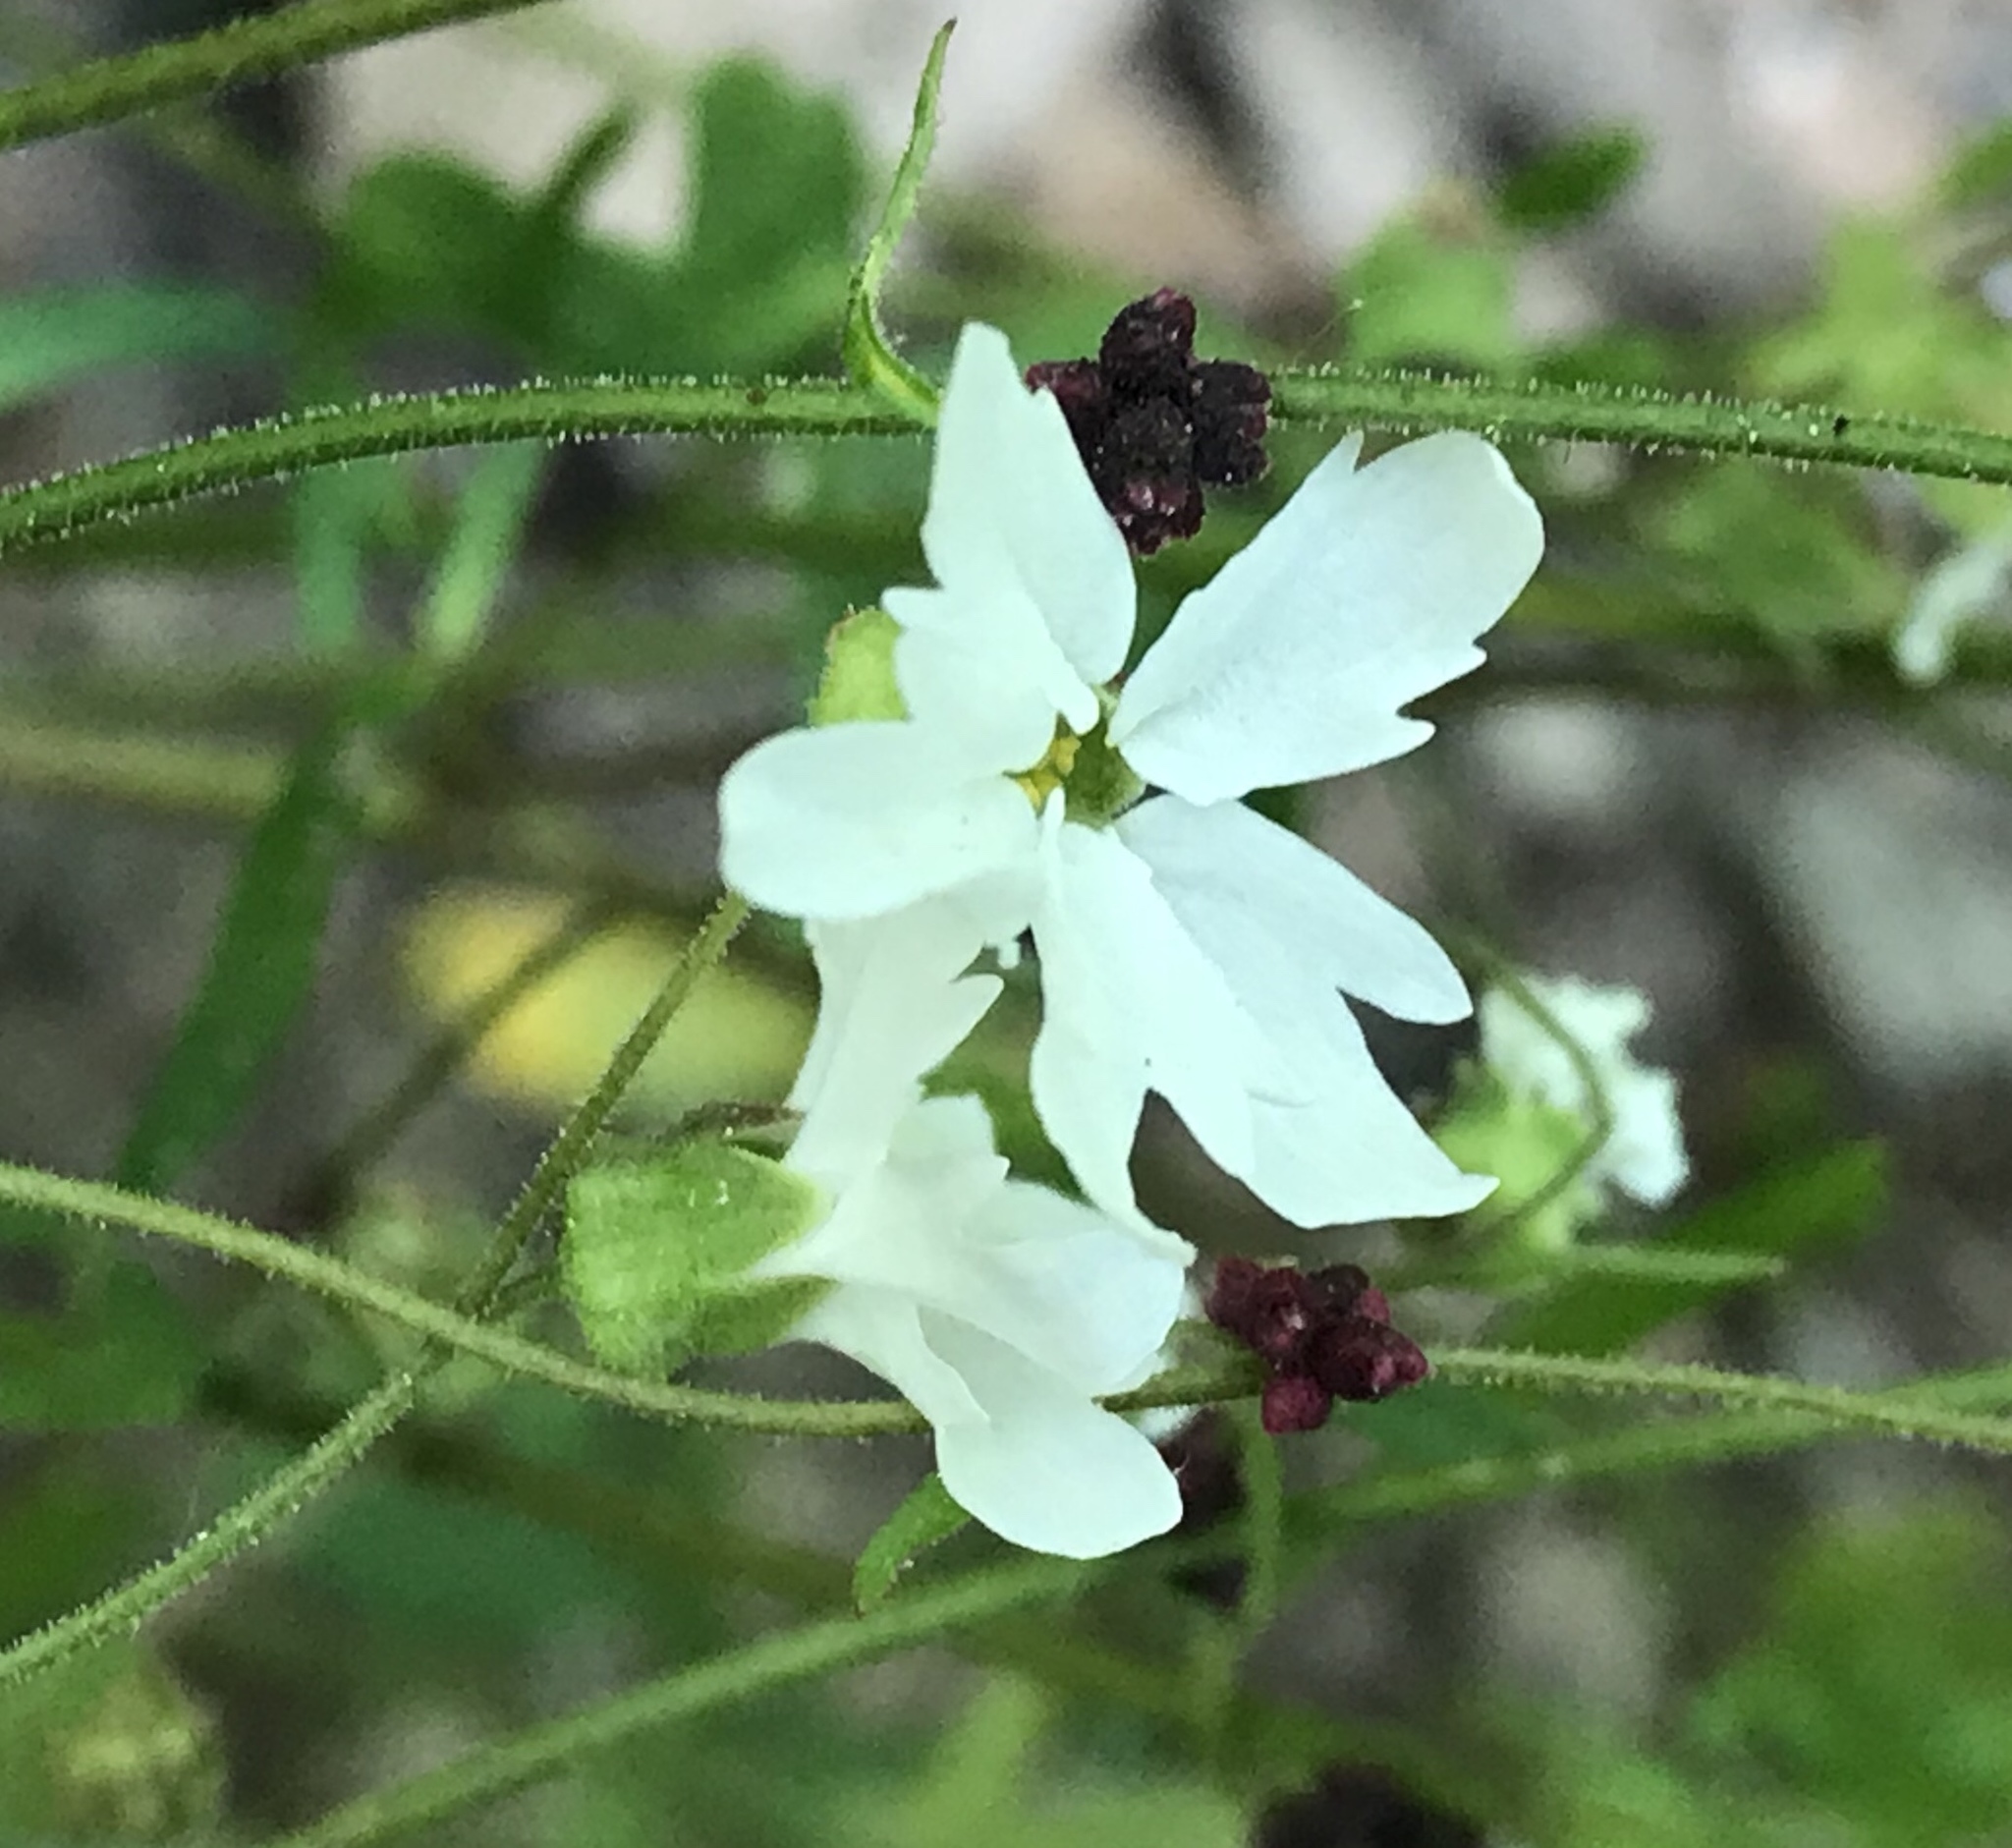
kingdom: Plantae
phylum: Tracheophyta
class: Magnoliopsida
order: Saxifragales
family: Saxifragaceae
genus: Lithophragma
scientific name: Lithophragma heterophyllum
